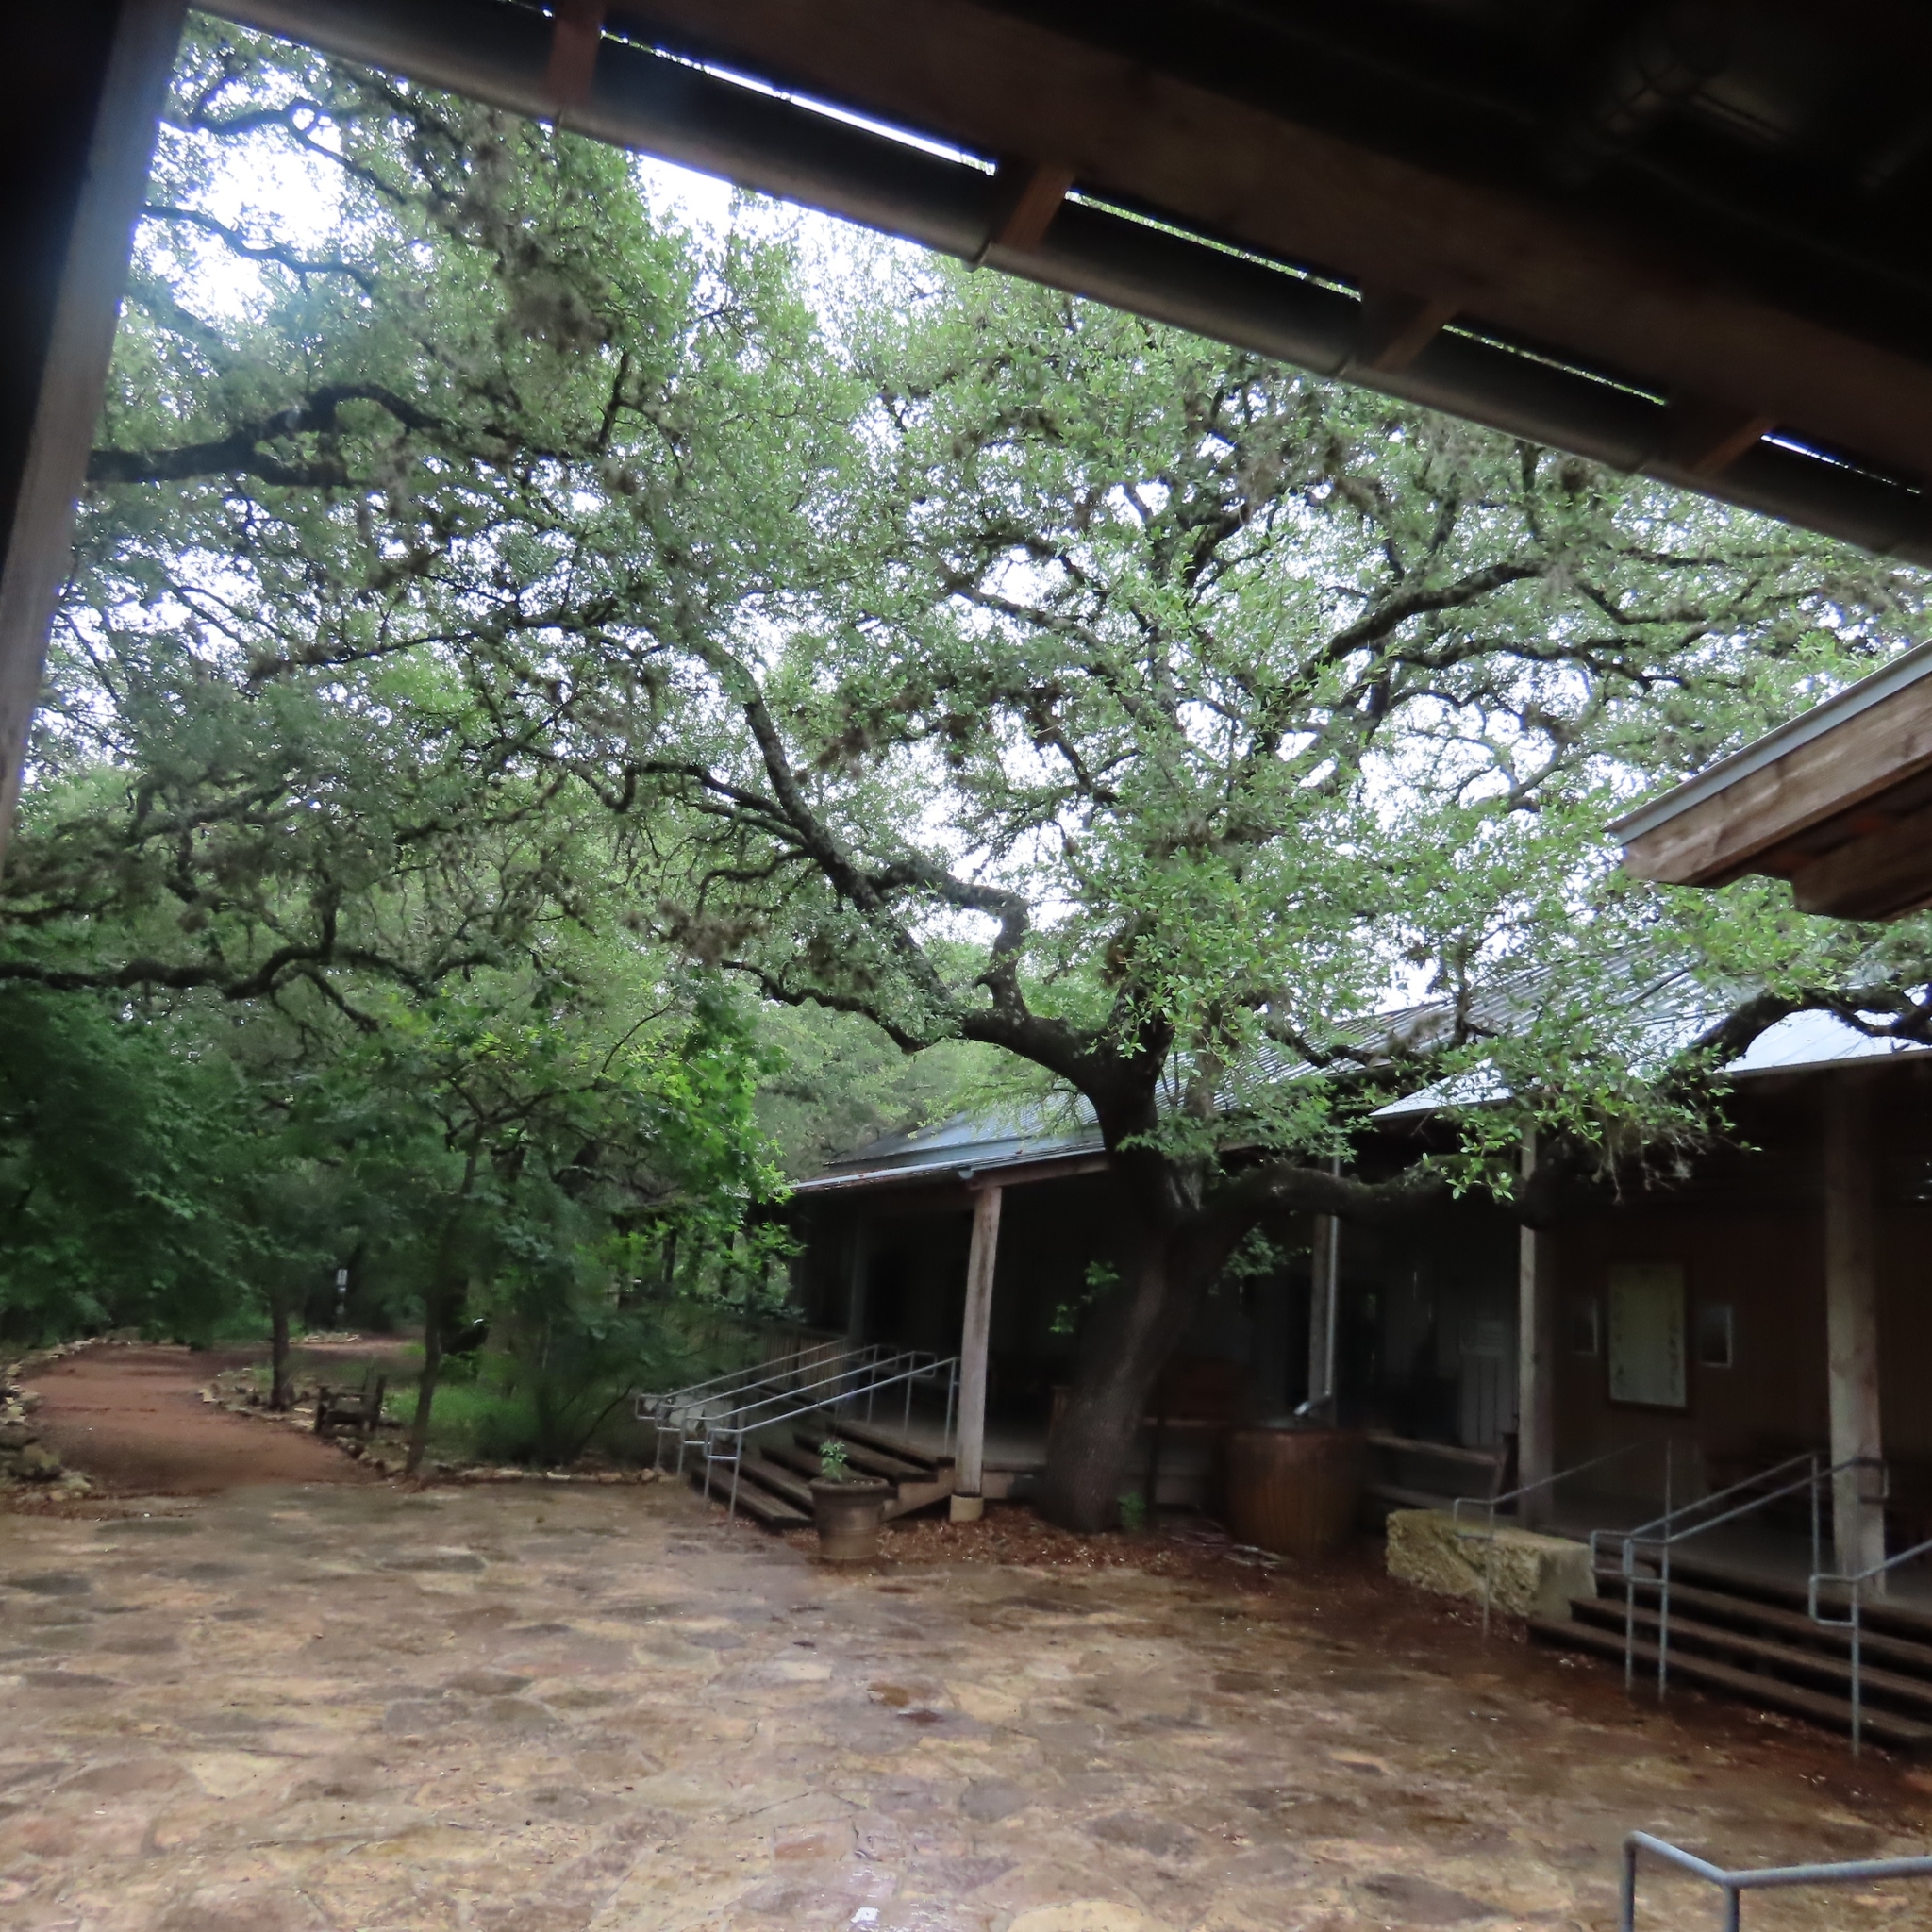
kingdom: Plantae
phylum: Tracheophyta
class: Magnoliopsida
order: Fabales
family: Fabaceae
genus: Prosopis
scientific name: Prosopis glandulosa
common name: Honey mesquite
